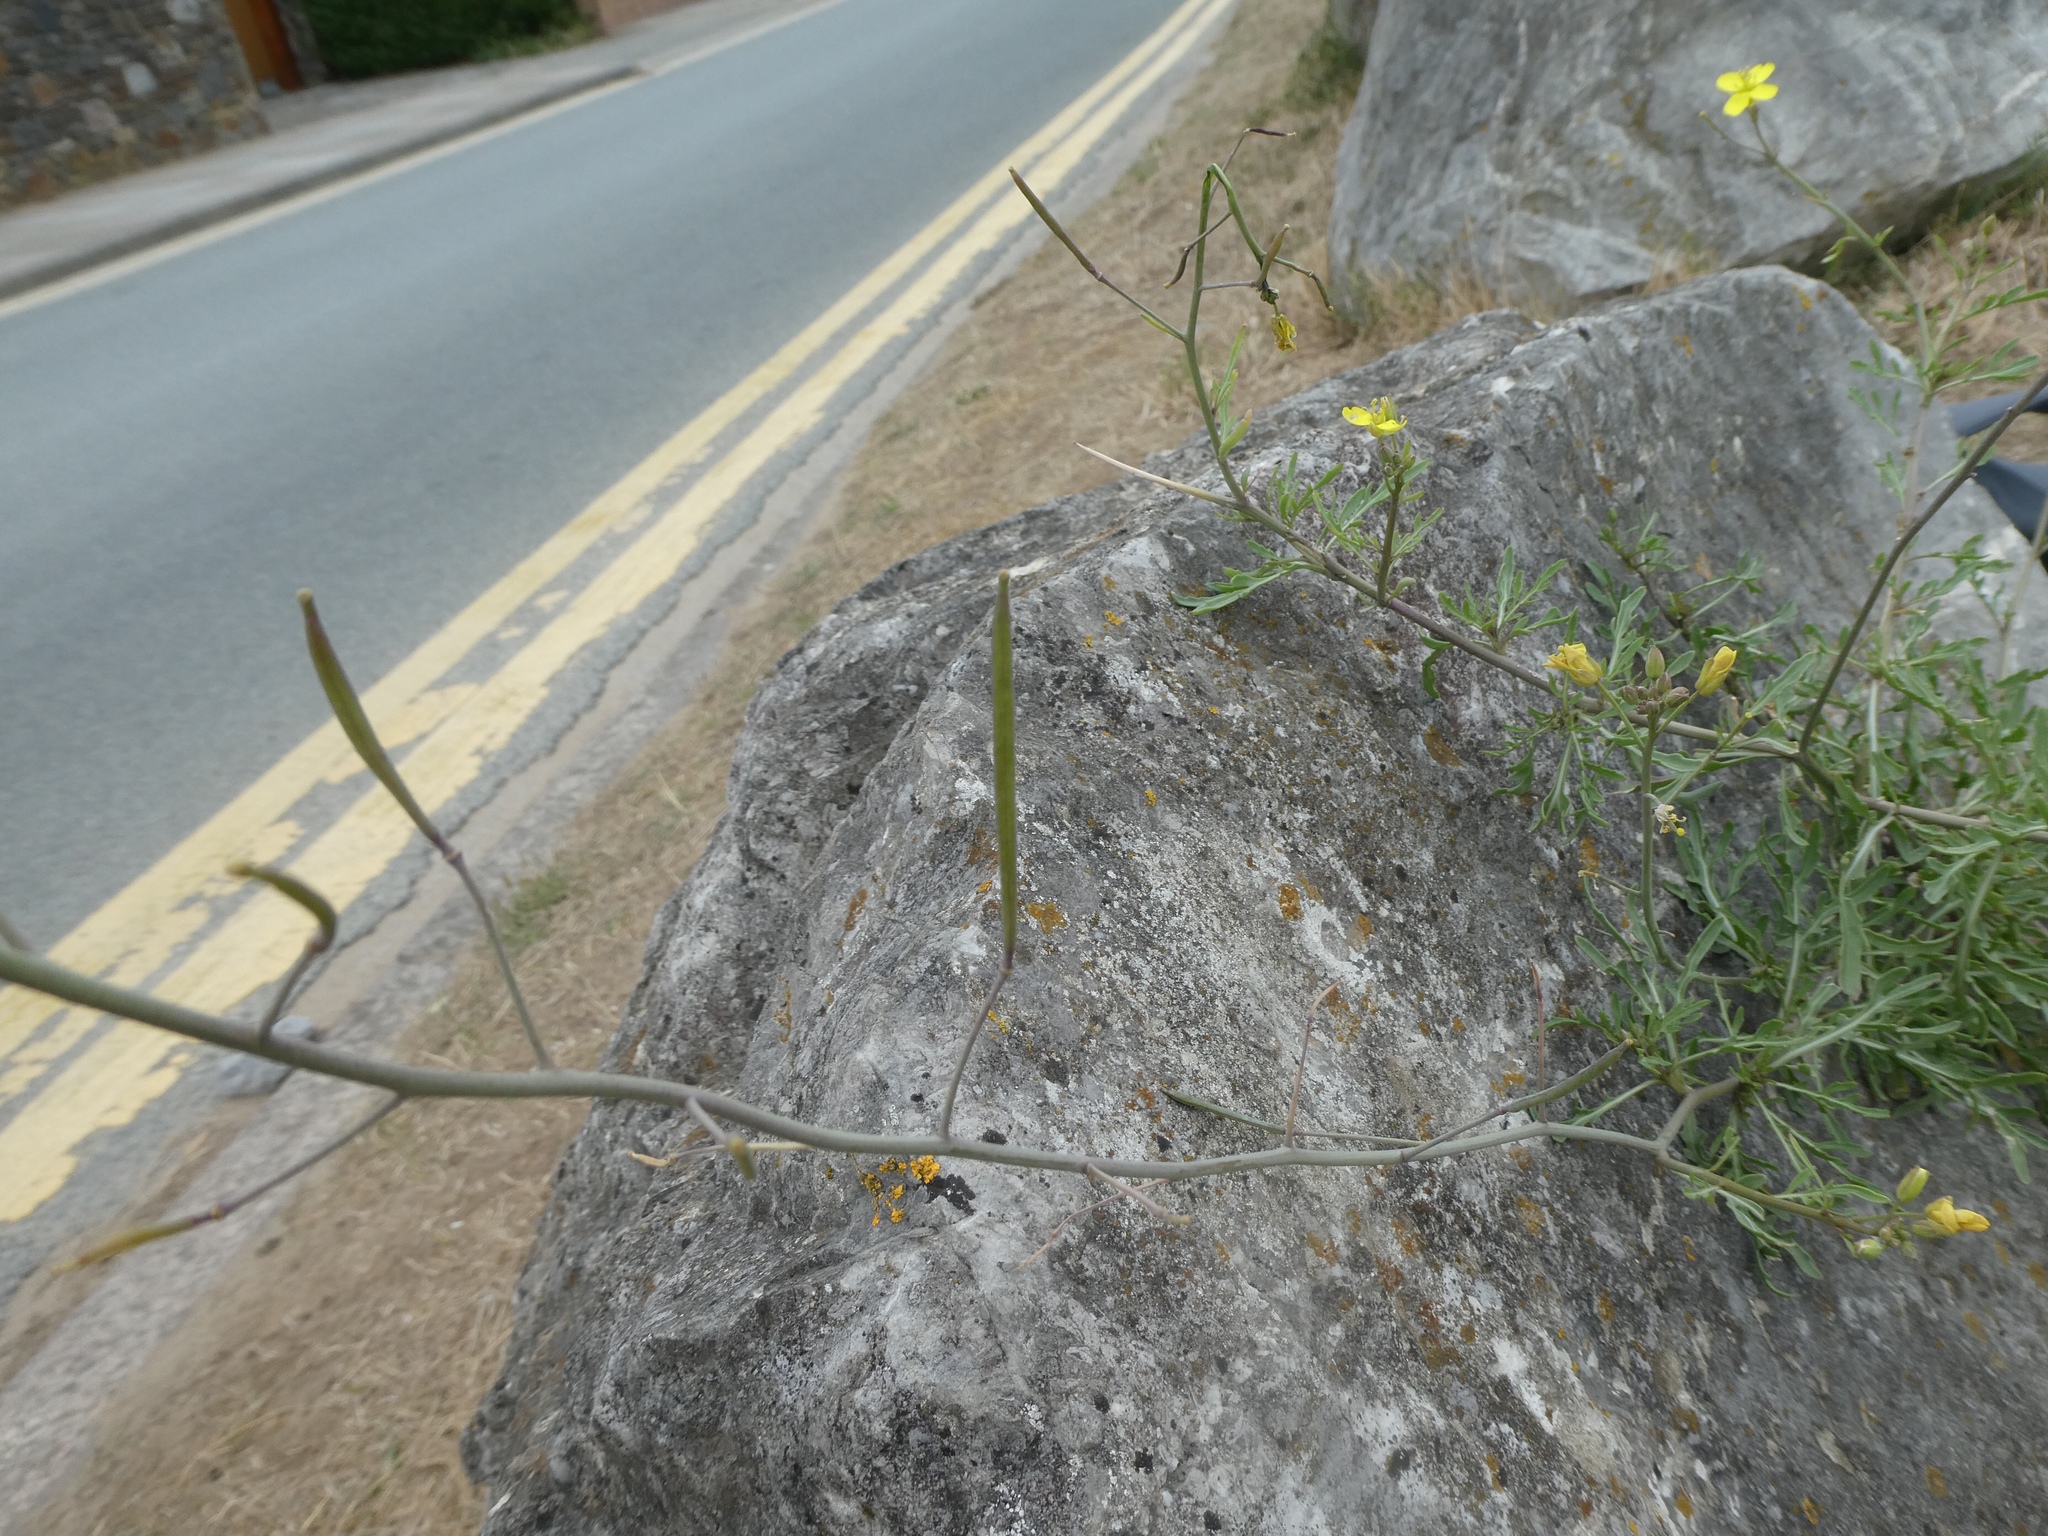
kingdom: Plantae
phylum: Tracheophyta
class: Magnoliopsida
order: Brassicales
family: Brassicaceae
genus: Diplotaxis
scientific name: Diplotaxis tenuifolia
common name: Perennial wall-rocket
